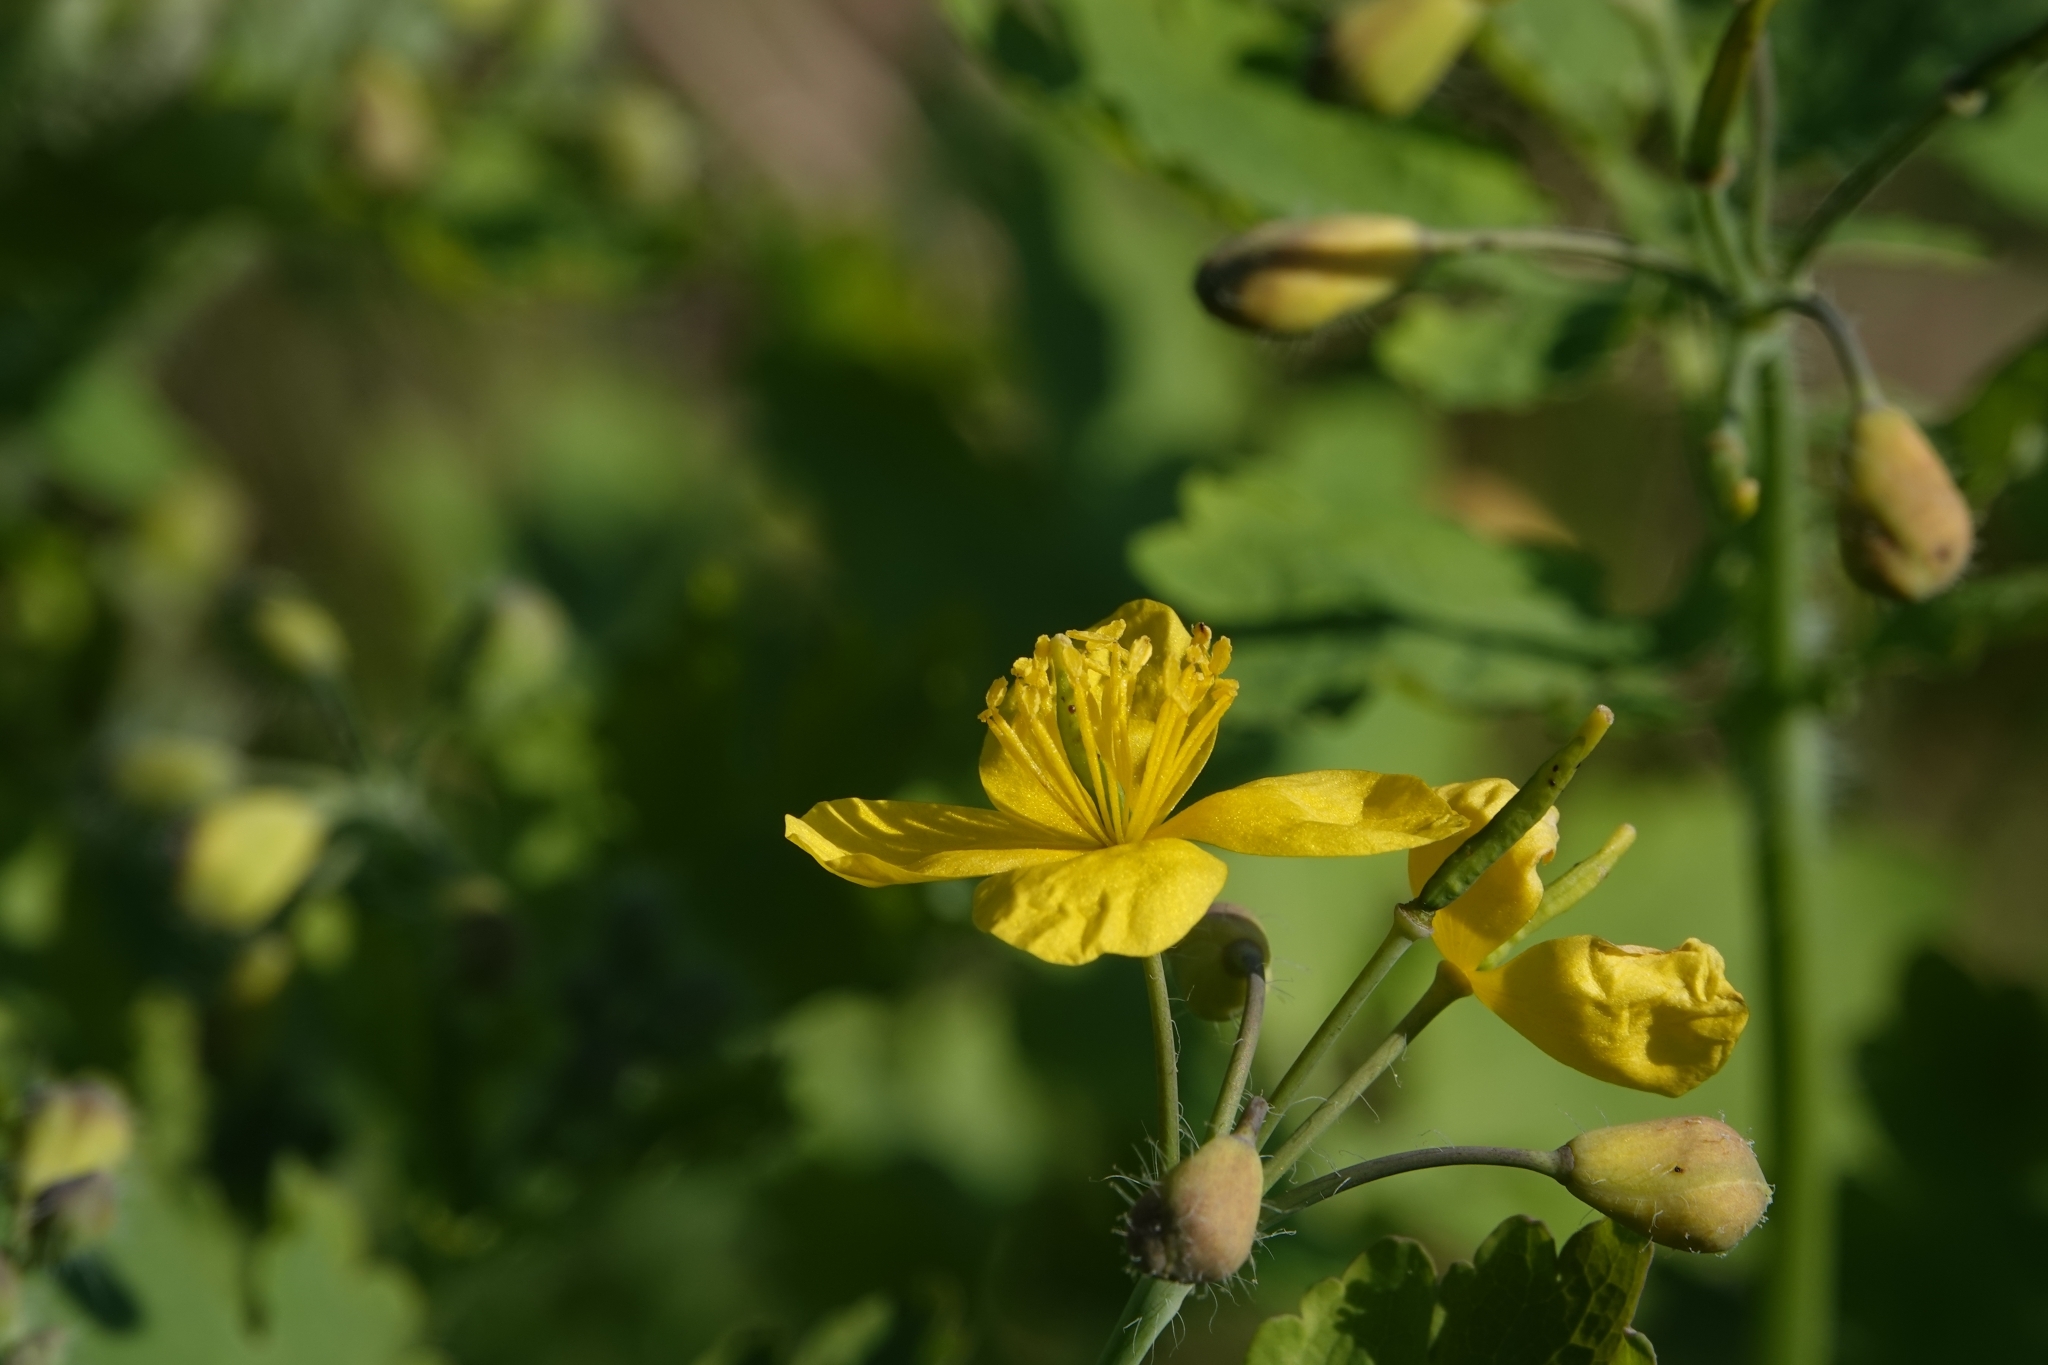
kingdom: Plantae
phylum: Tracheophyta
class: Magnoliopsida
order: Ranunculales
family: Papaveraceae
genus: Chelidonium
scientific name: Chelidonium majus
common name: Greater celandine
